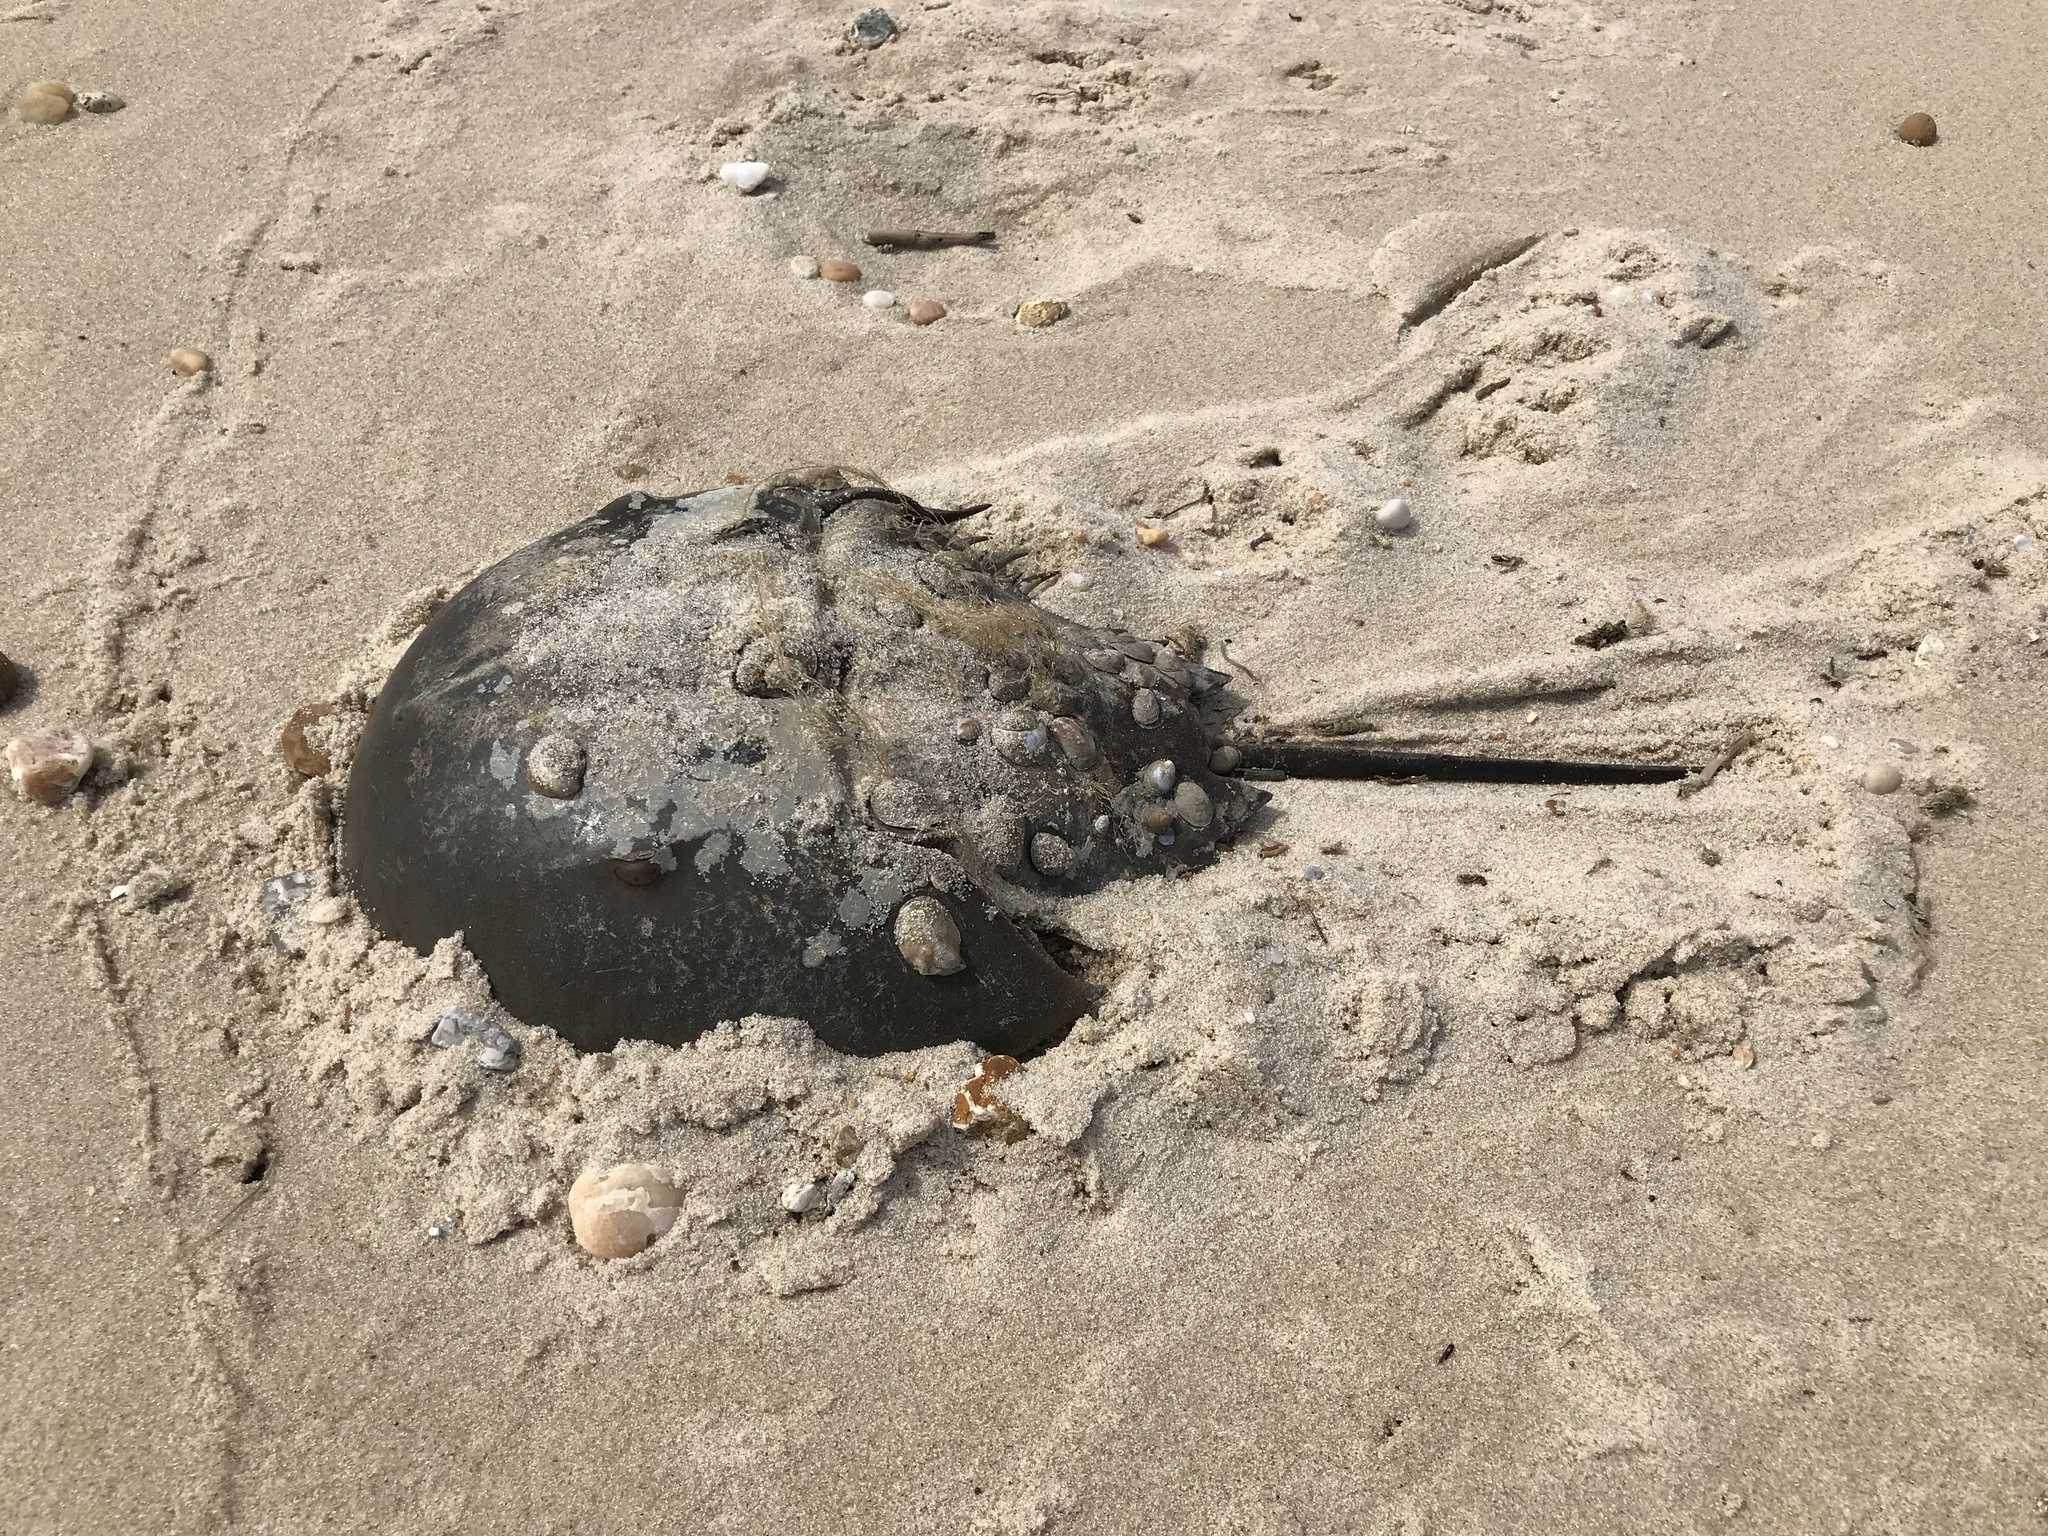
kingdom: Animalia
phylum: Arthropoda
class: Merostomata
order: Xiphosurida
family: Limulidae
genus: Limulus
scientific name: Limulus polyphemus
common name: Horseshoe crab
